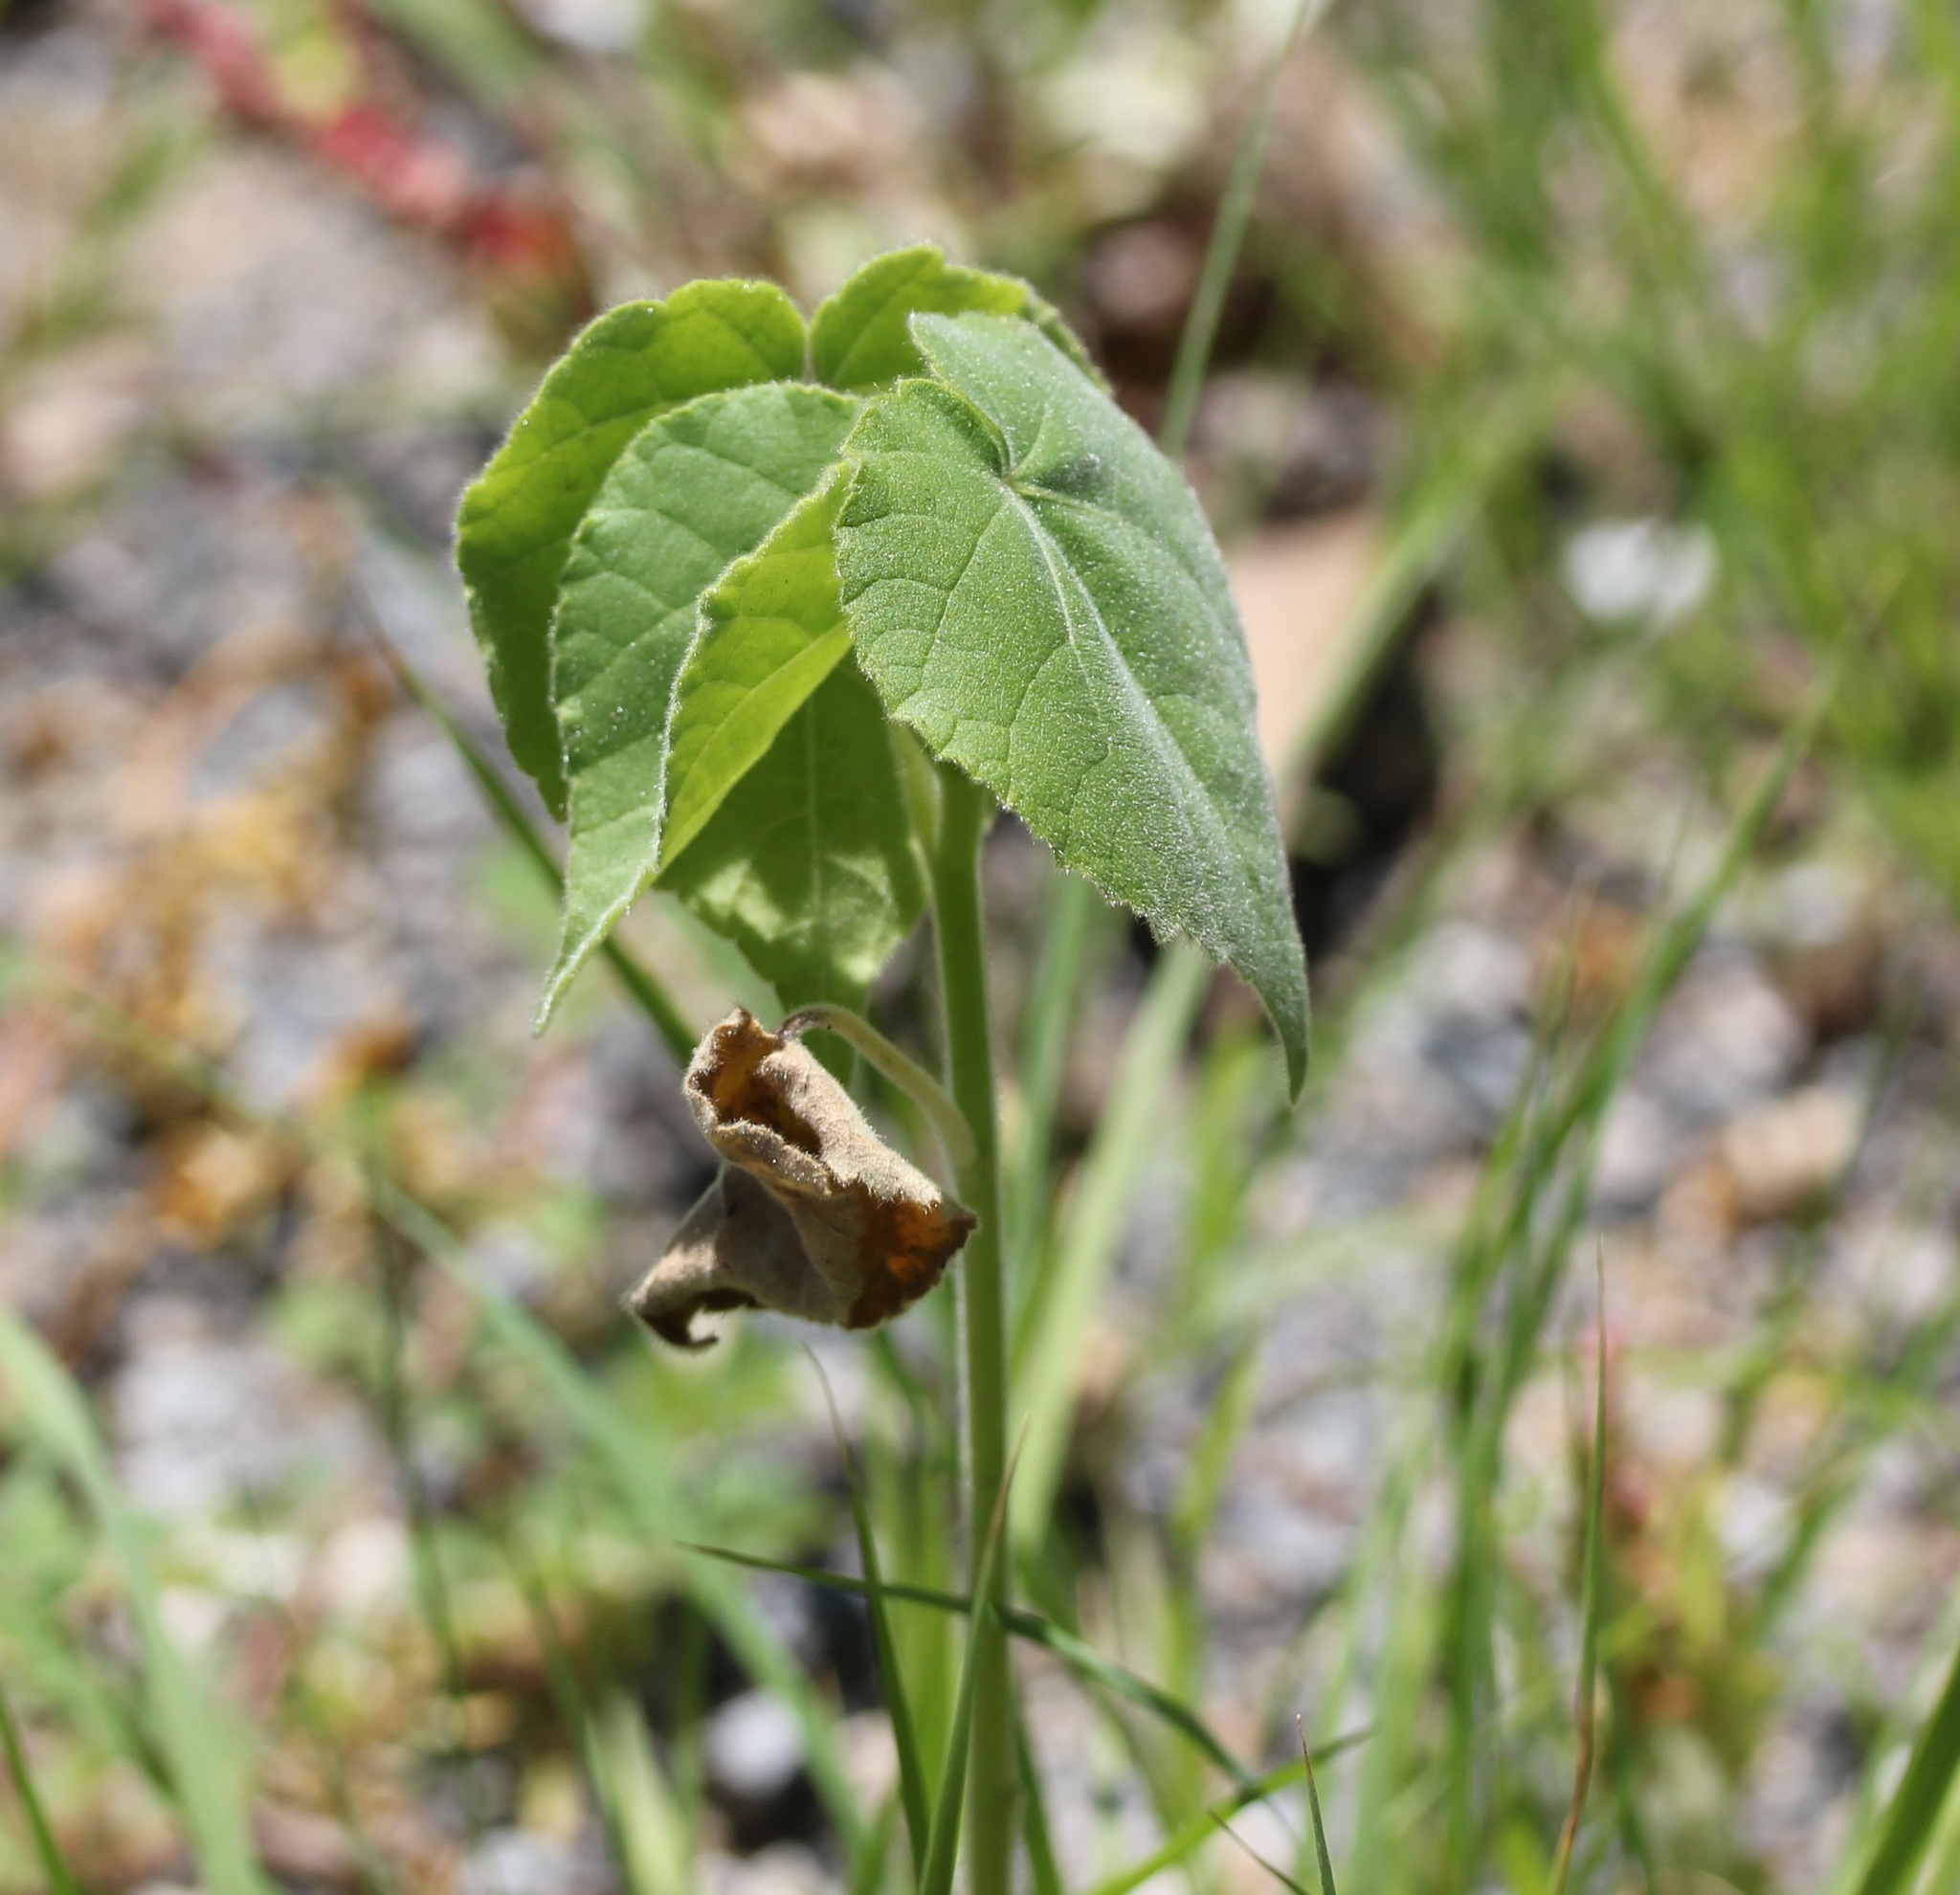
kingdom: Plantae
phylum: Tracheophyta
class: Magnoliopsida
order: Malvales
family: Malvaceae
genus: Abutilon
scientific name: Abutilon theophrasti
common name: Velvetleaf
